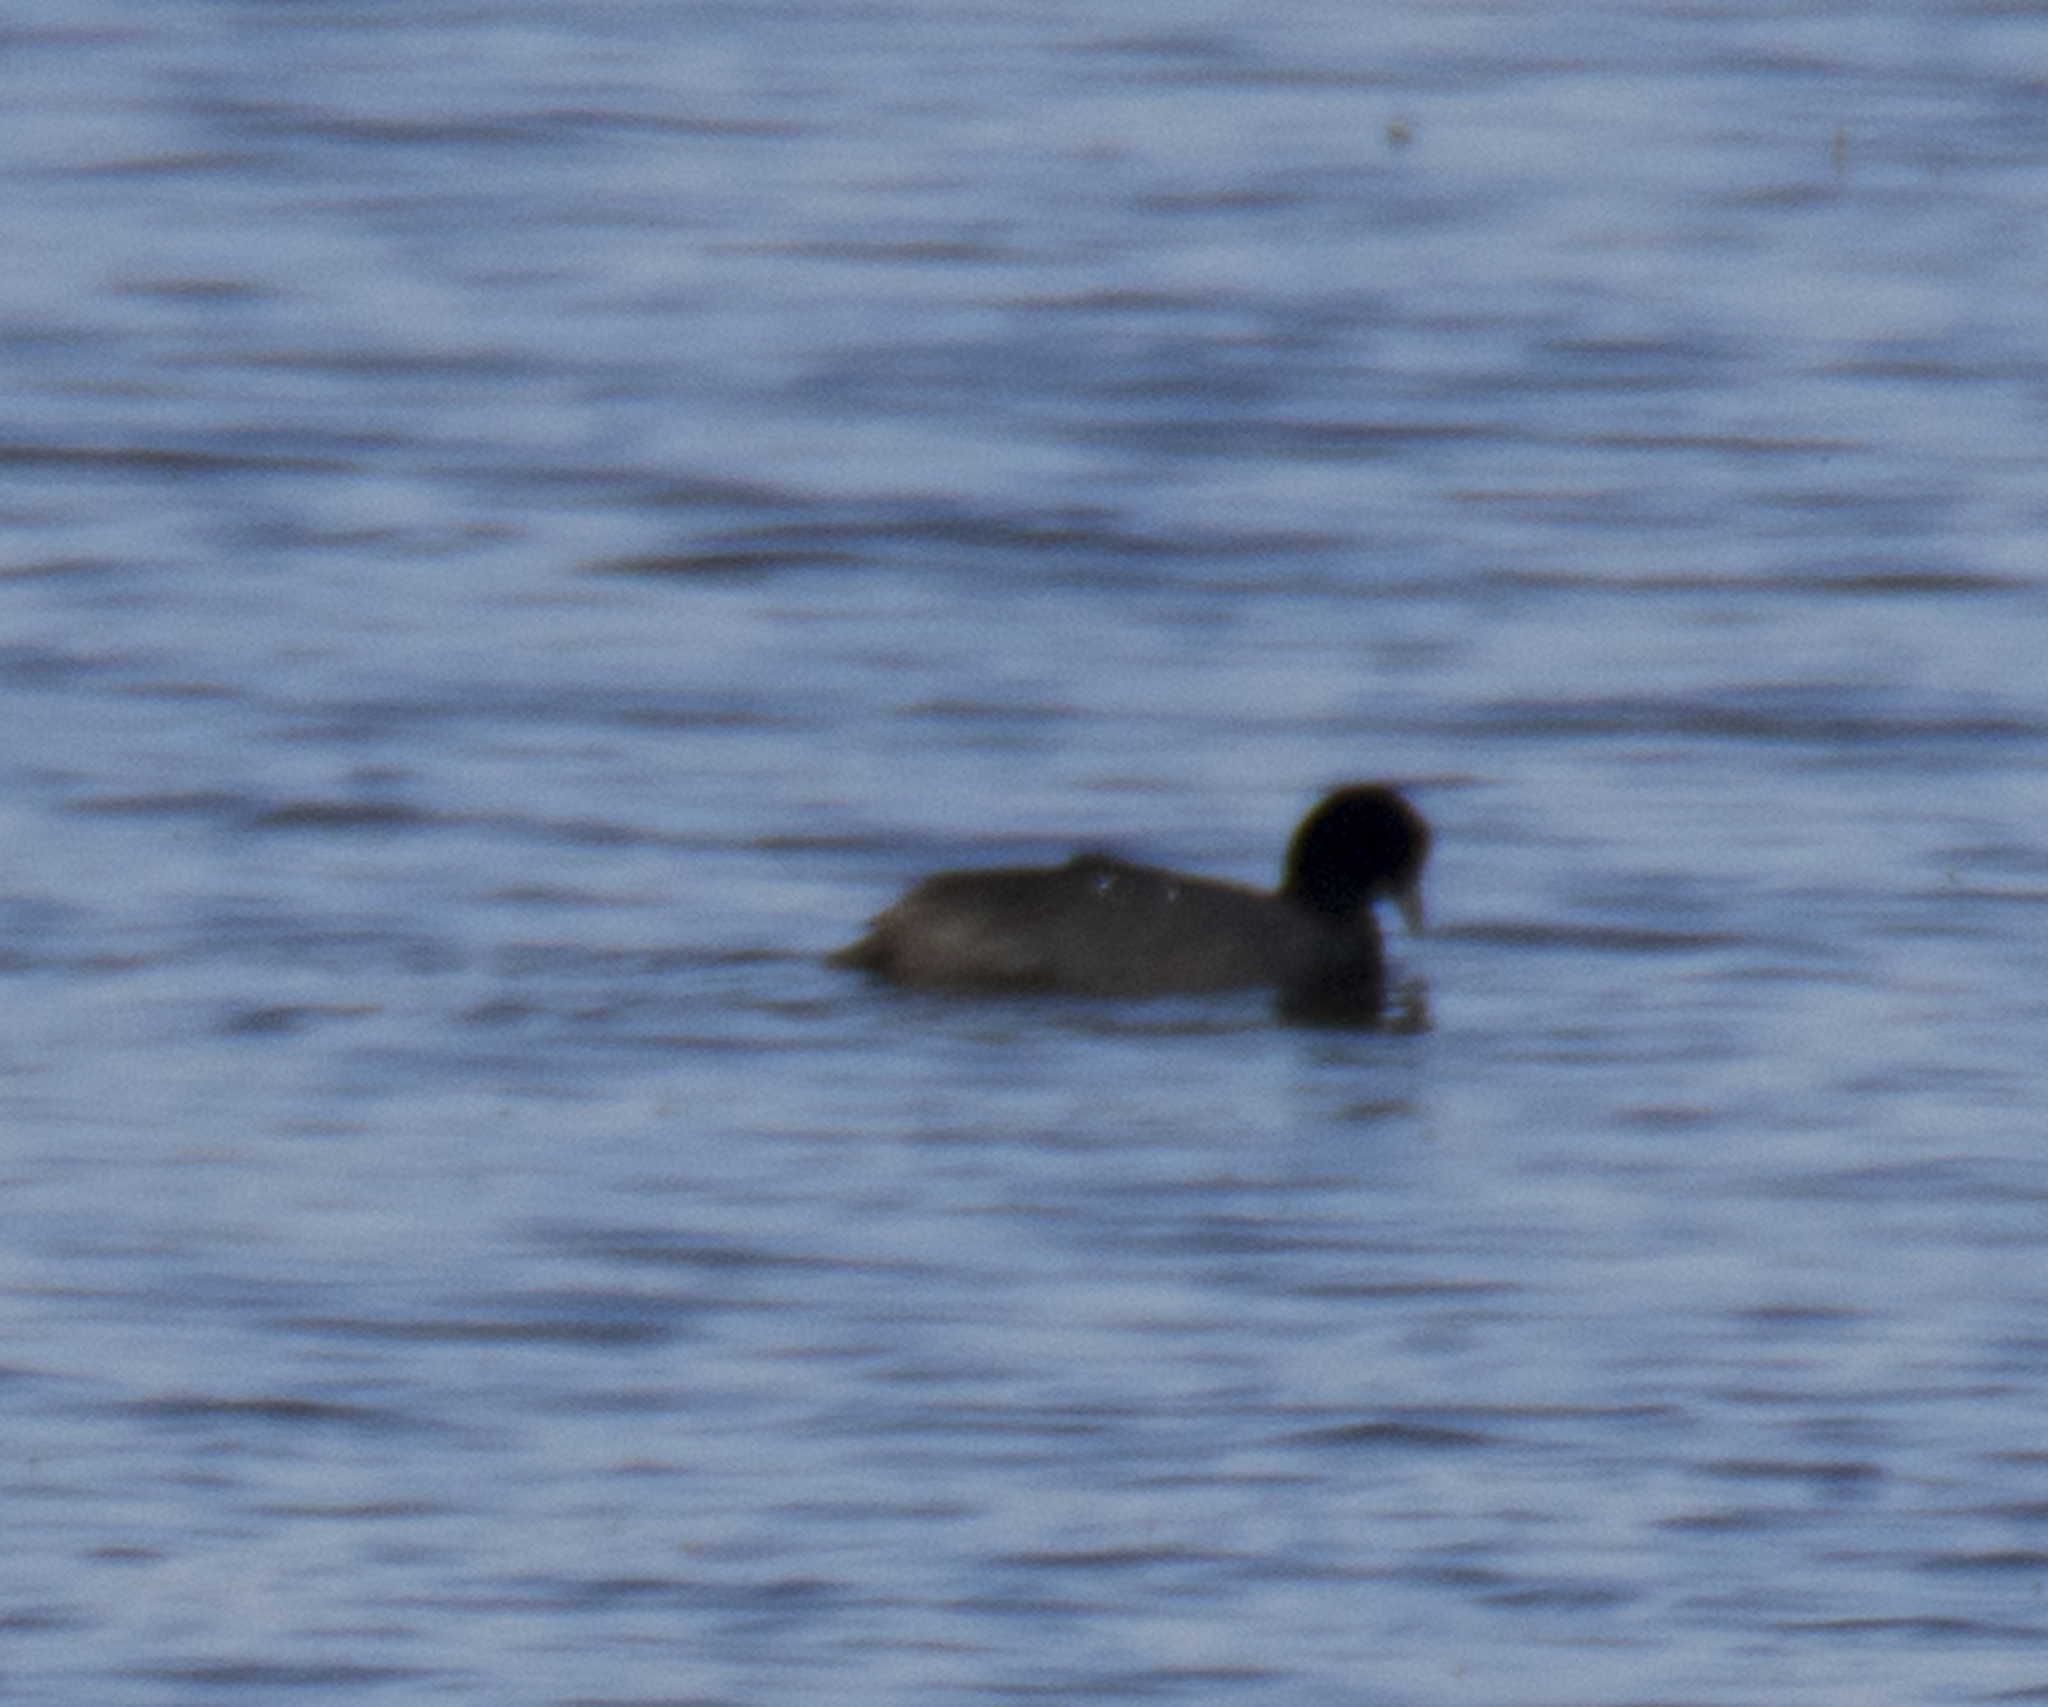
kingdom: Animalia
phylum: Chordata
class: Aves
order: Gruiformes
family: Rallidae
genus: Fulica
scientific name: Fulica atra
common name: Eurasian coot
